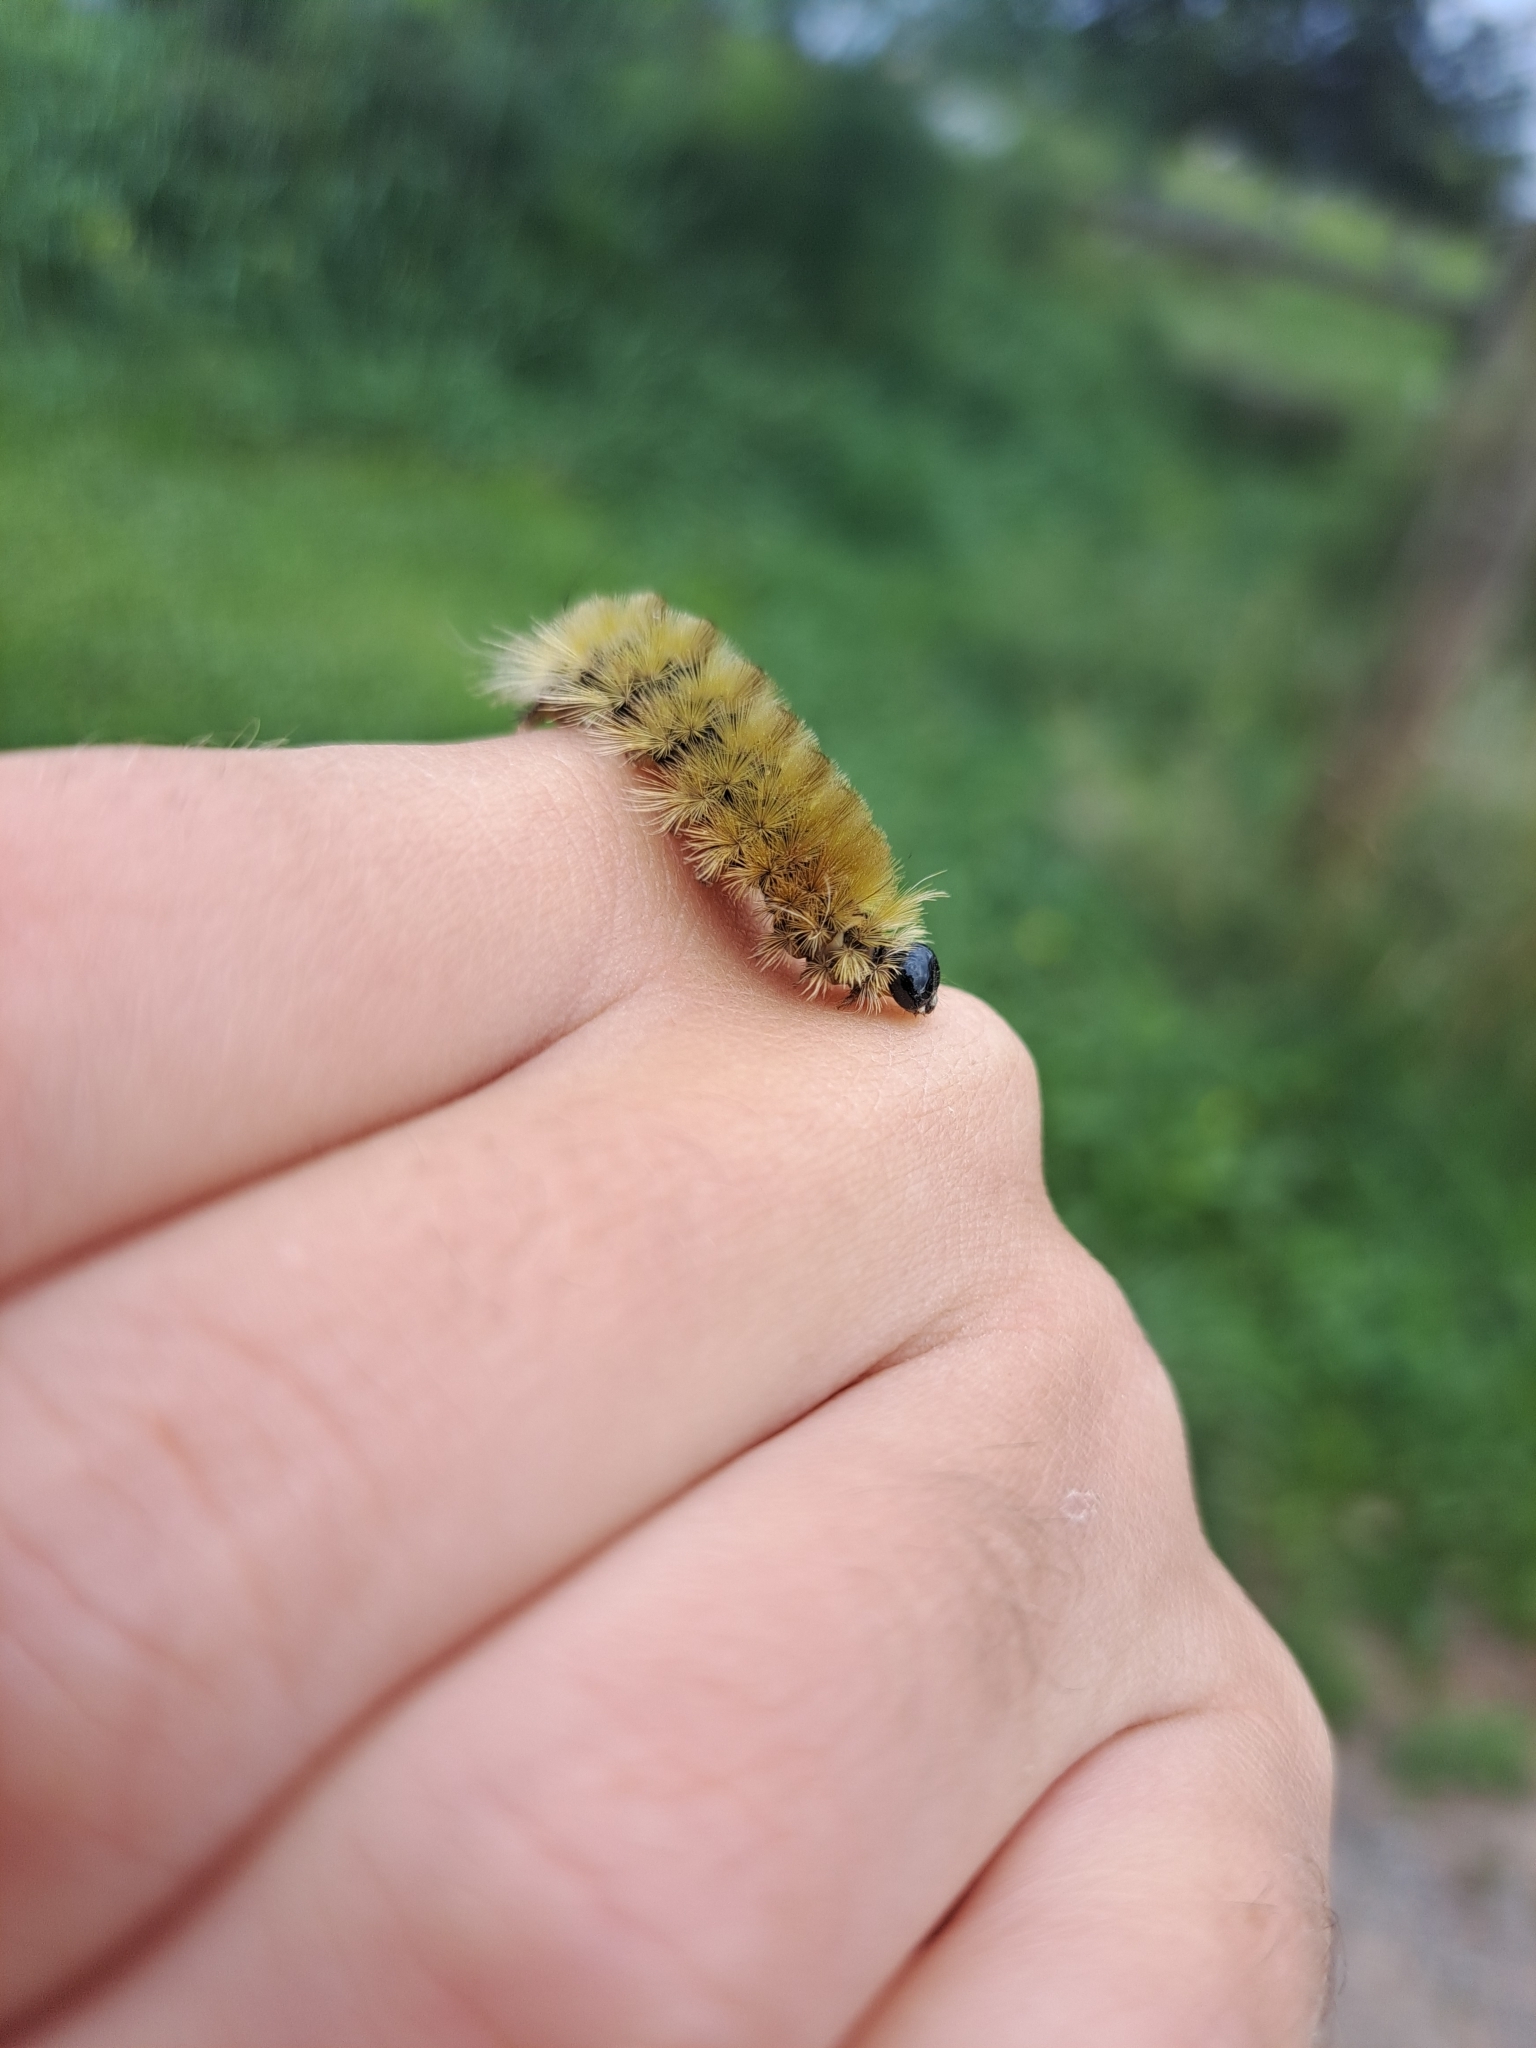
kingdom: Animalia
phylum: Arthropoda
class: Insecta
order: Lepidoptera
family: Erebidae
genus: Halysidota
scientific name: Halysidota tessellaris
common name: Banded tussock moth
